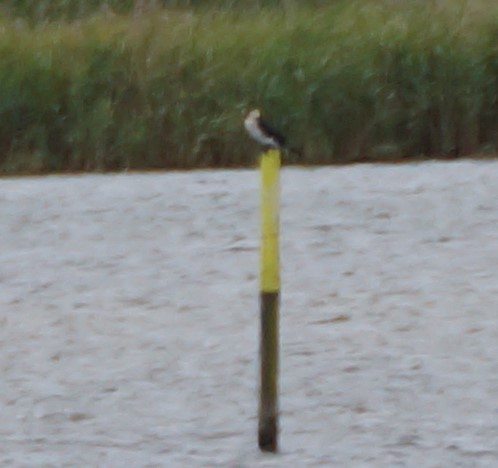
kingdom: Animalia
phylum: Chordata
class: Aves
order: Suliformes
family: Phalacrocoracidae
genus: Microcarbo
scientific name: Microcarbo melanoleucos
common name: Little pied cormorant
